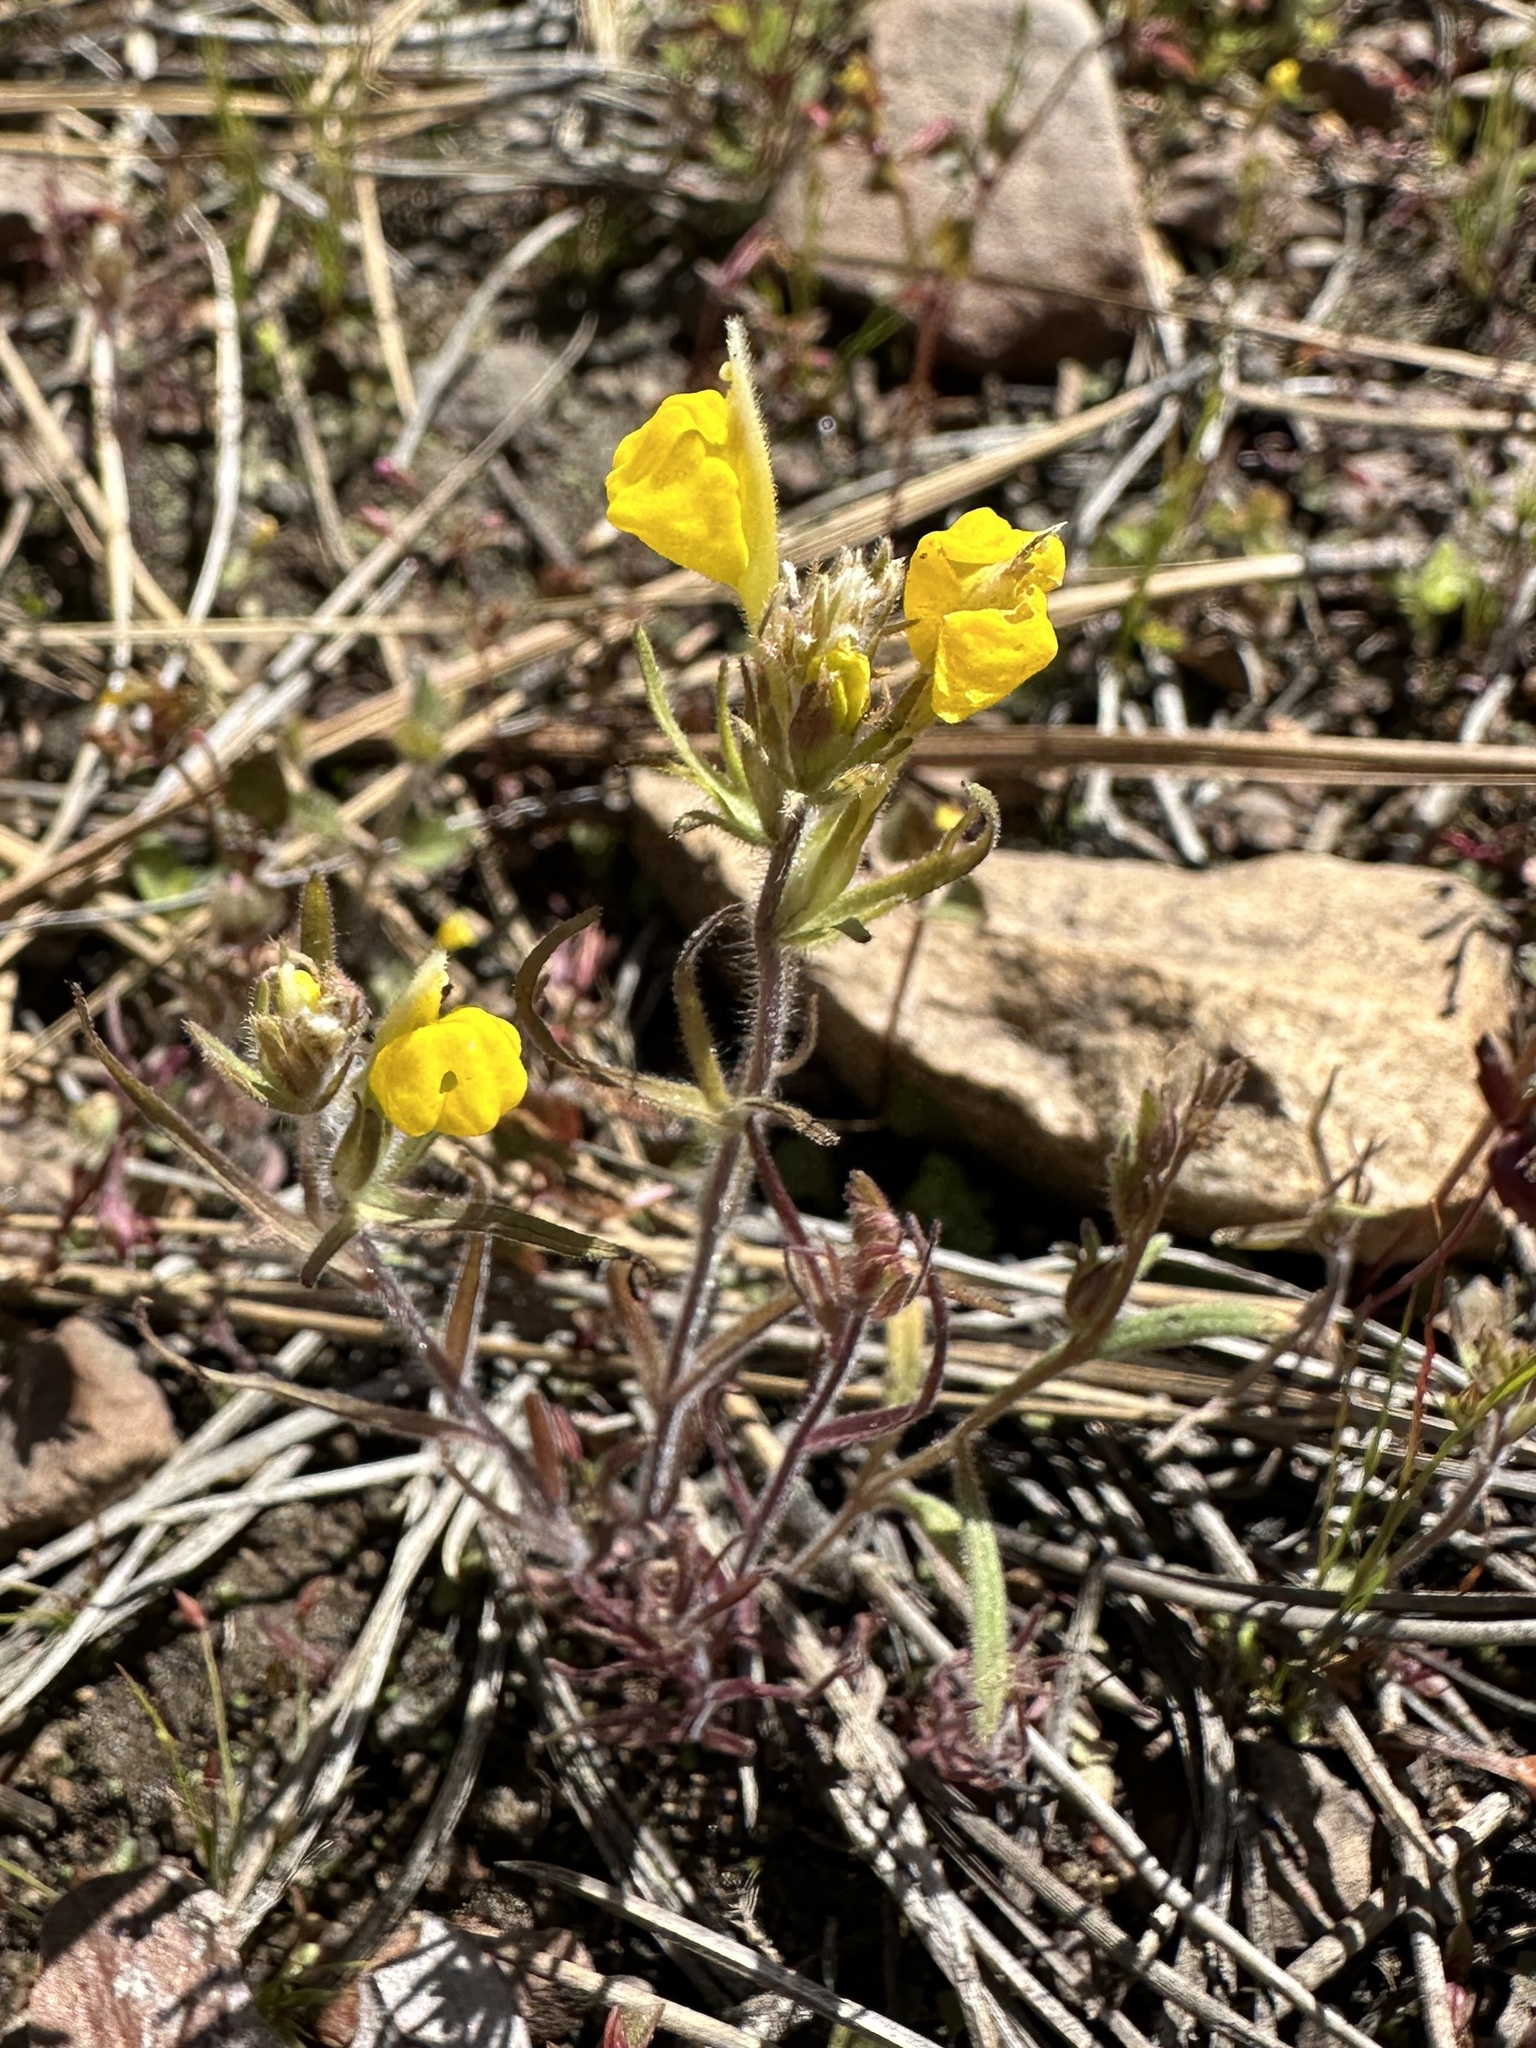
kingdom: Plantae
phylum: Tracheophyta
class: Magnoliopsida
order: Lamiales
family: Orobanchaceae
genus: Castilleja
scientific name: Castilleja lasiorhyncha
